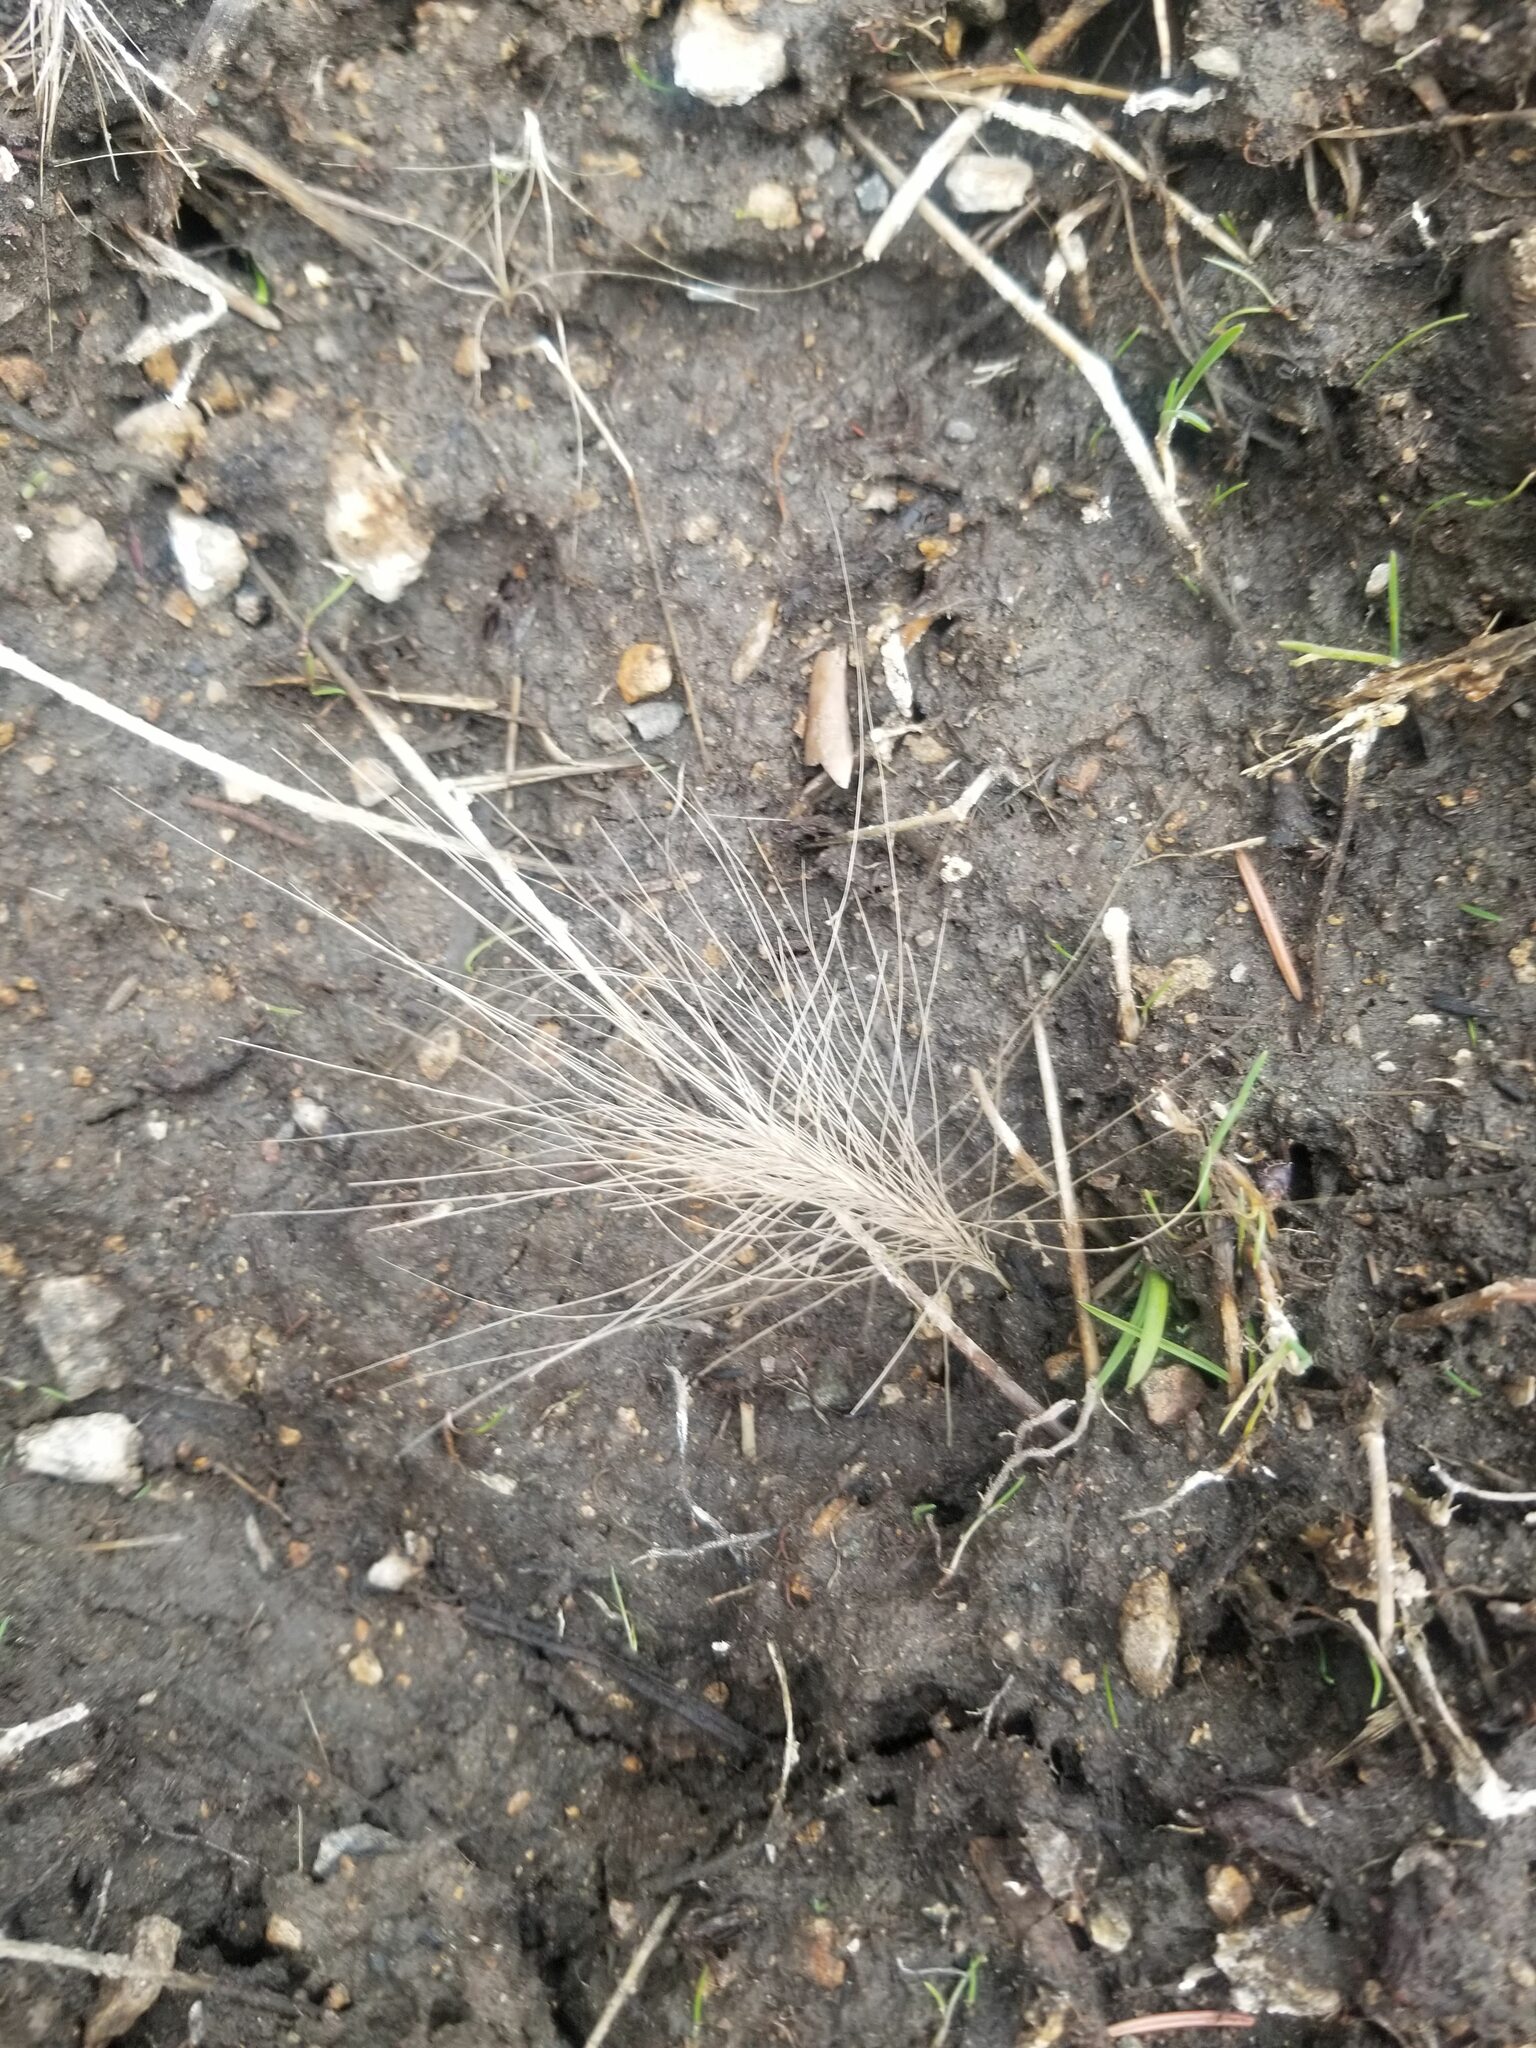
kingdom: Plantae
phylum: Tracheophyta
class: Liliopsida
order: Poales
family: Poaceae
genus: Hordeum
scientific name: Hordeum jubatum
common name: Foxtail barley
